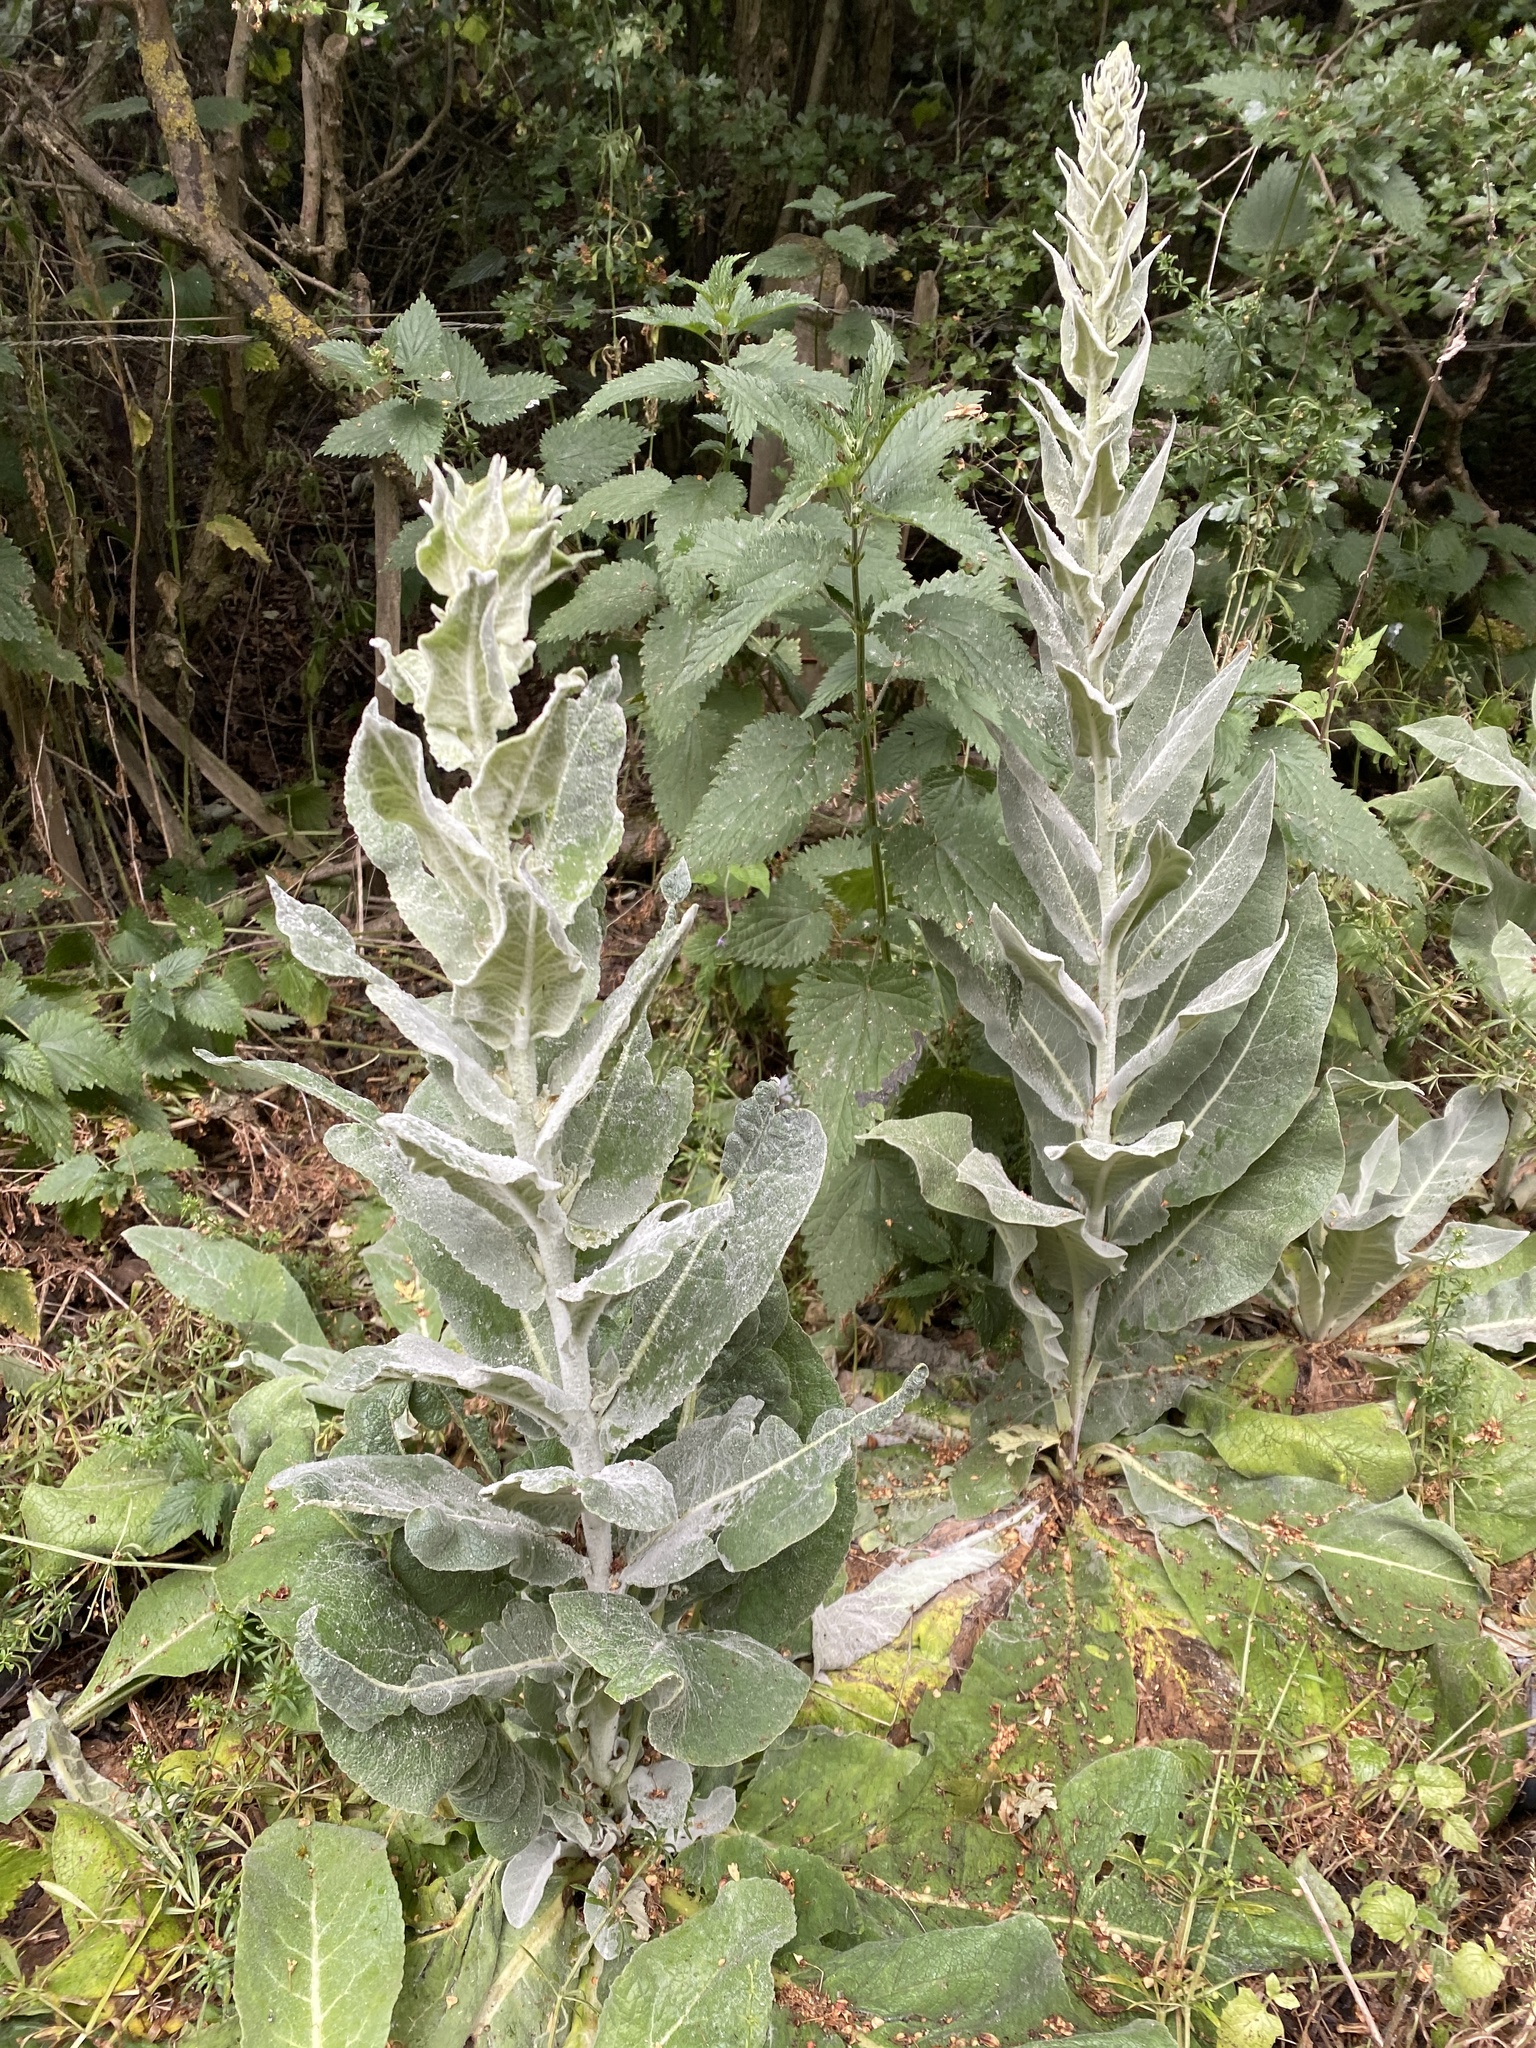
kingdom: Plantae
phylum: Tracheophyta
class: Magnoliopsida
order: Lamiales
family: Scrophulariaceae
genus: Verbascum
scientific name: Verbascum thapsus
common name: Common mullein
